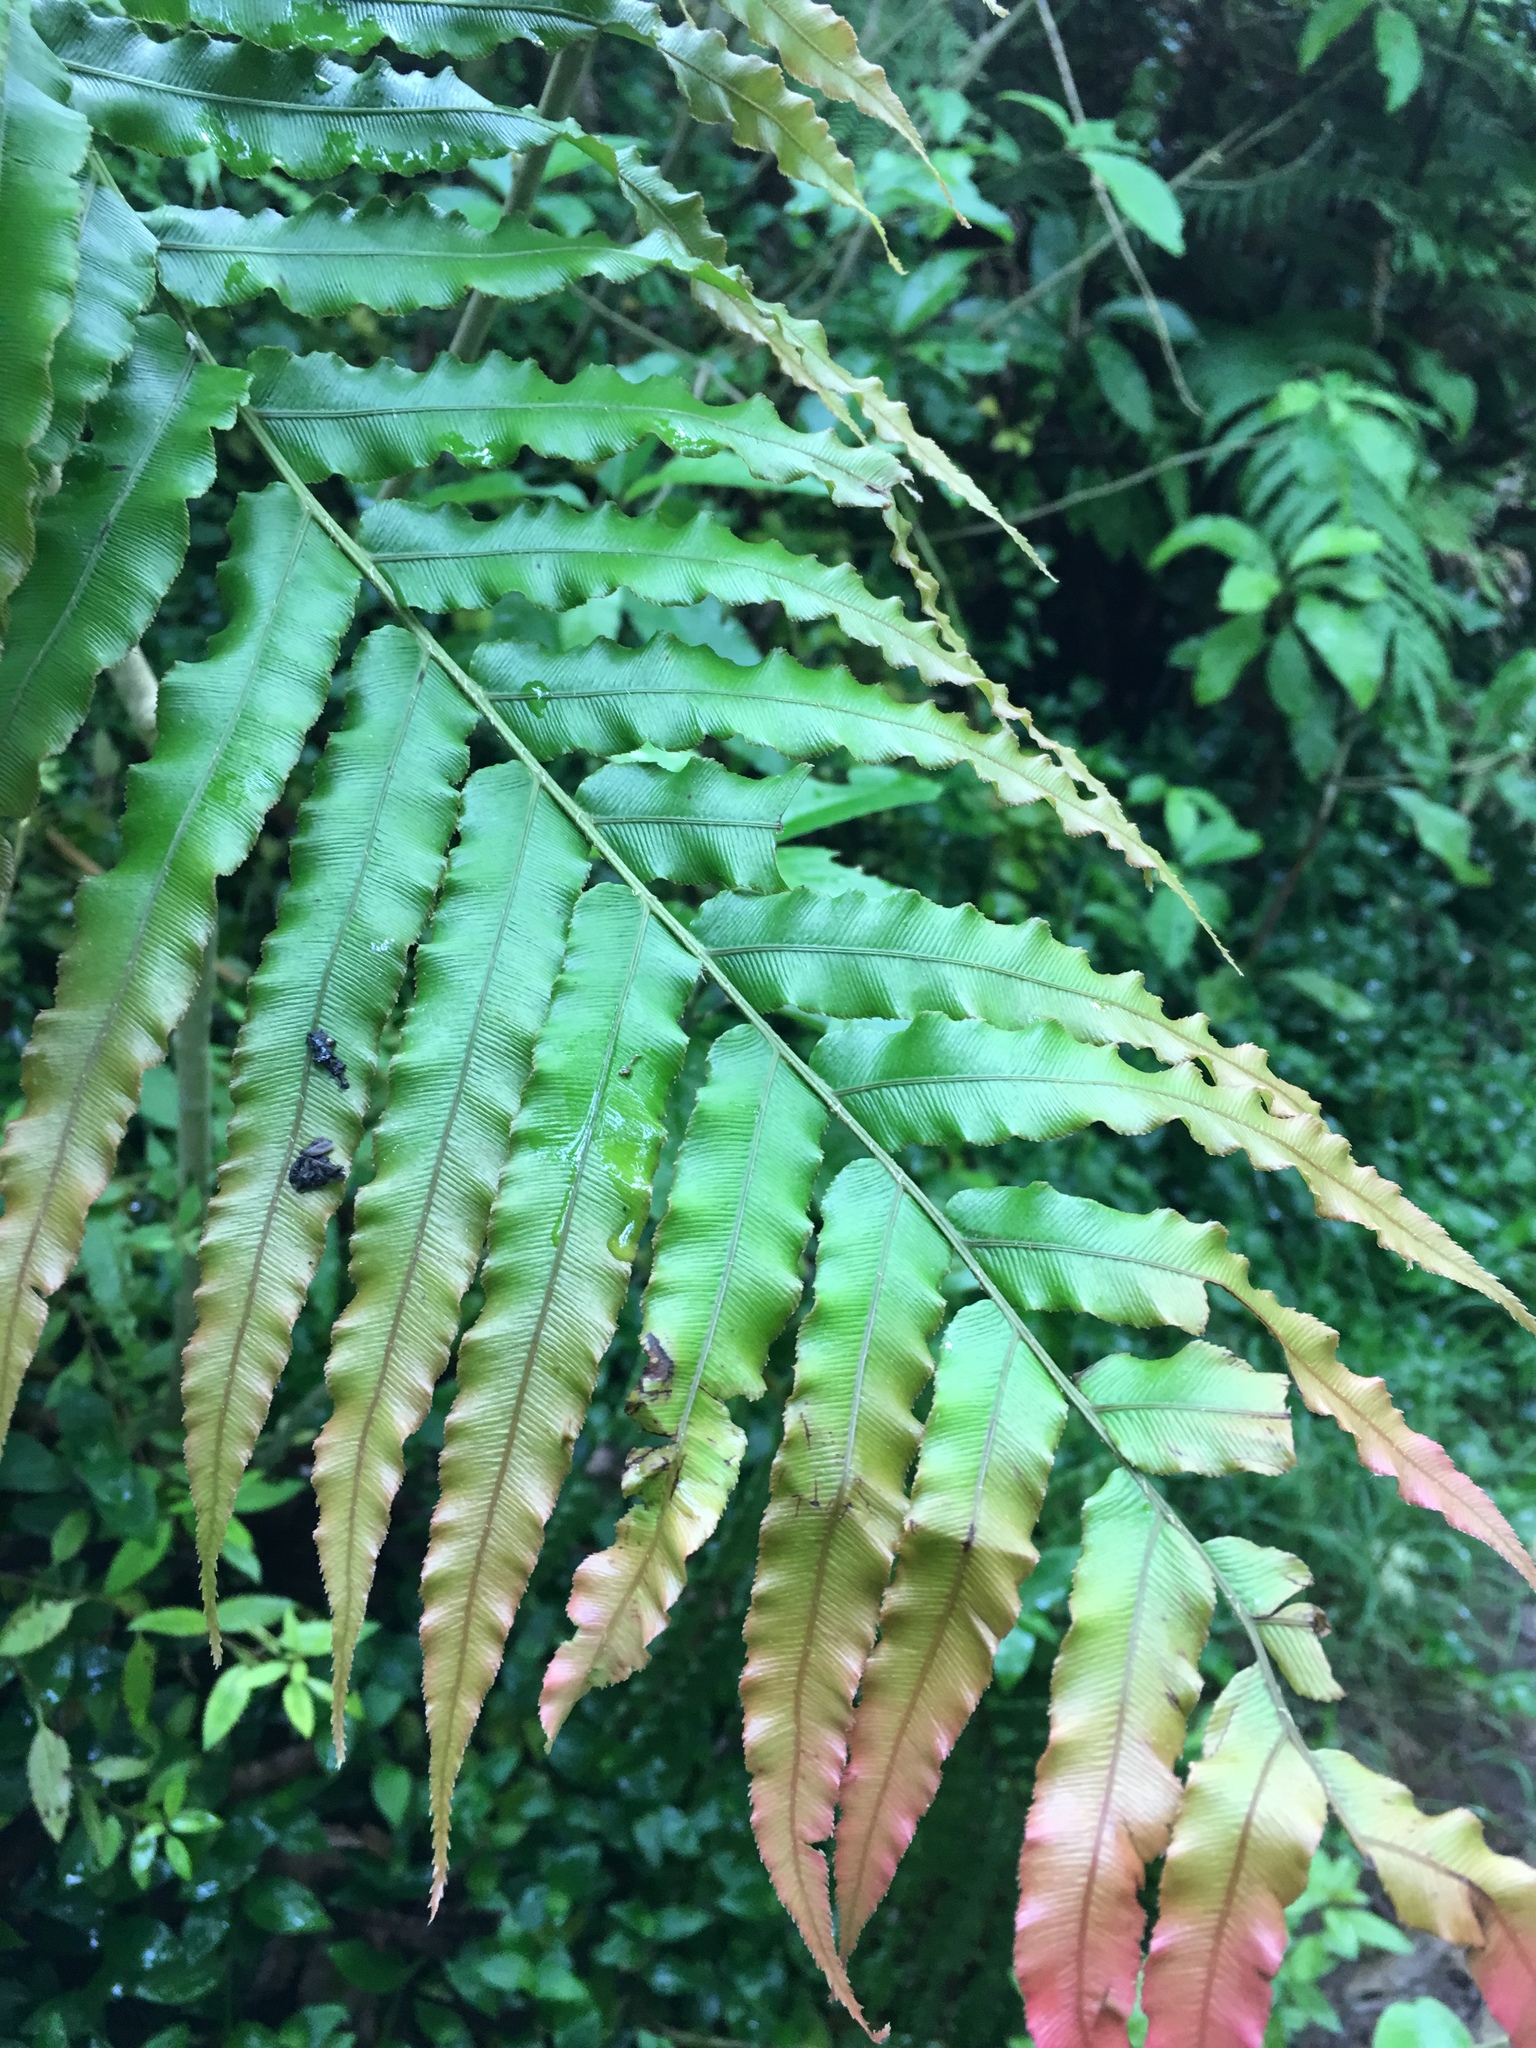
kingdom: Plantae
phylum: Tracheophyta
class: Polypodiopsida
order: Polypodiales
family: Blechnaceae
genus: Parablechnum
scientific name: Parablechnum novae-zelandiae
